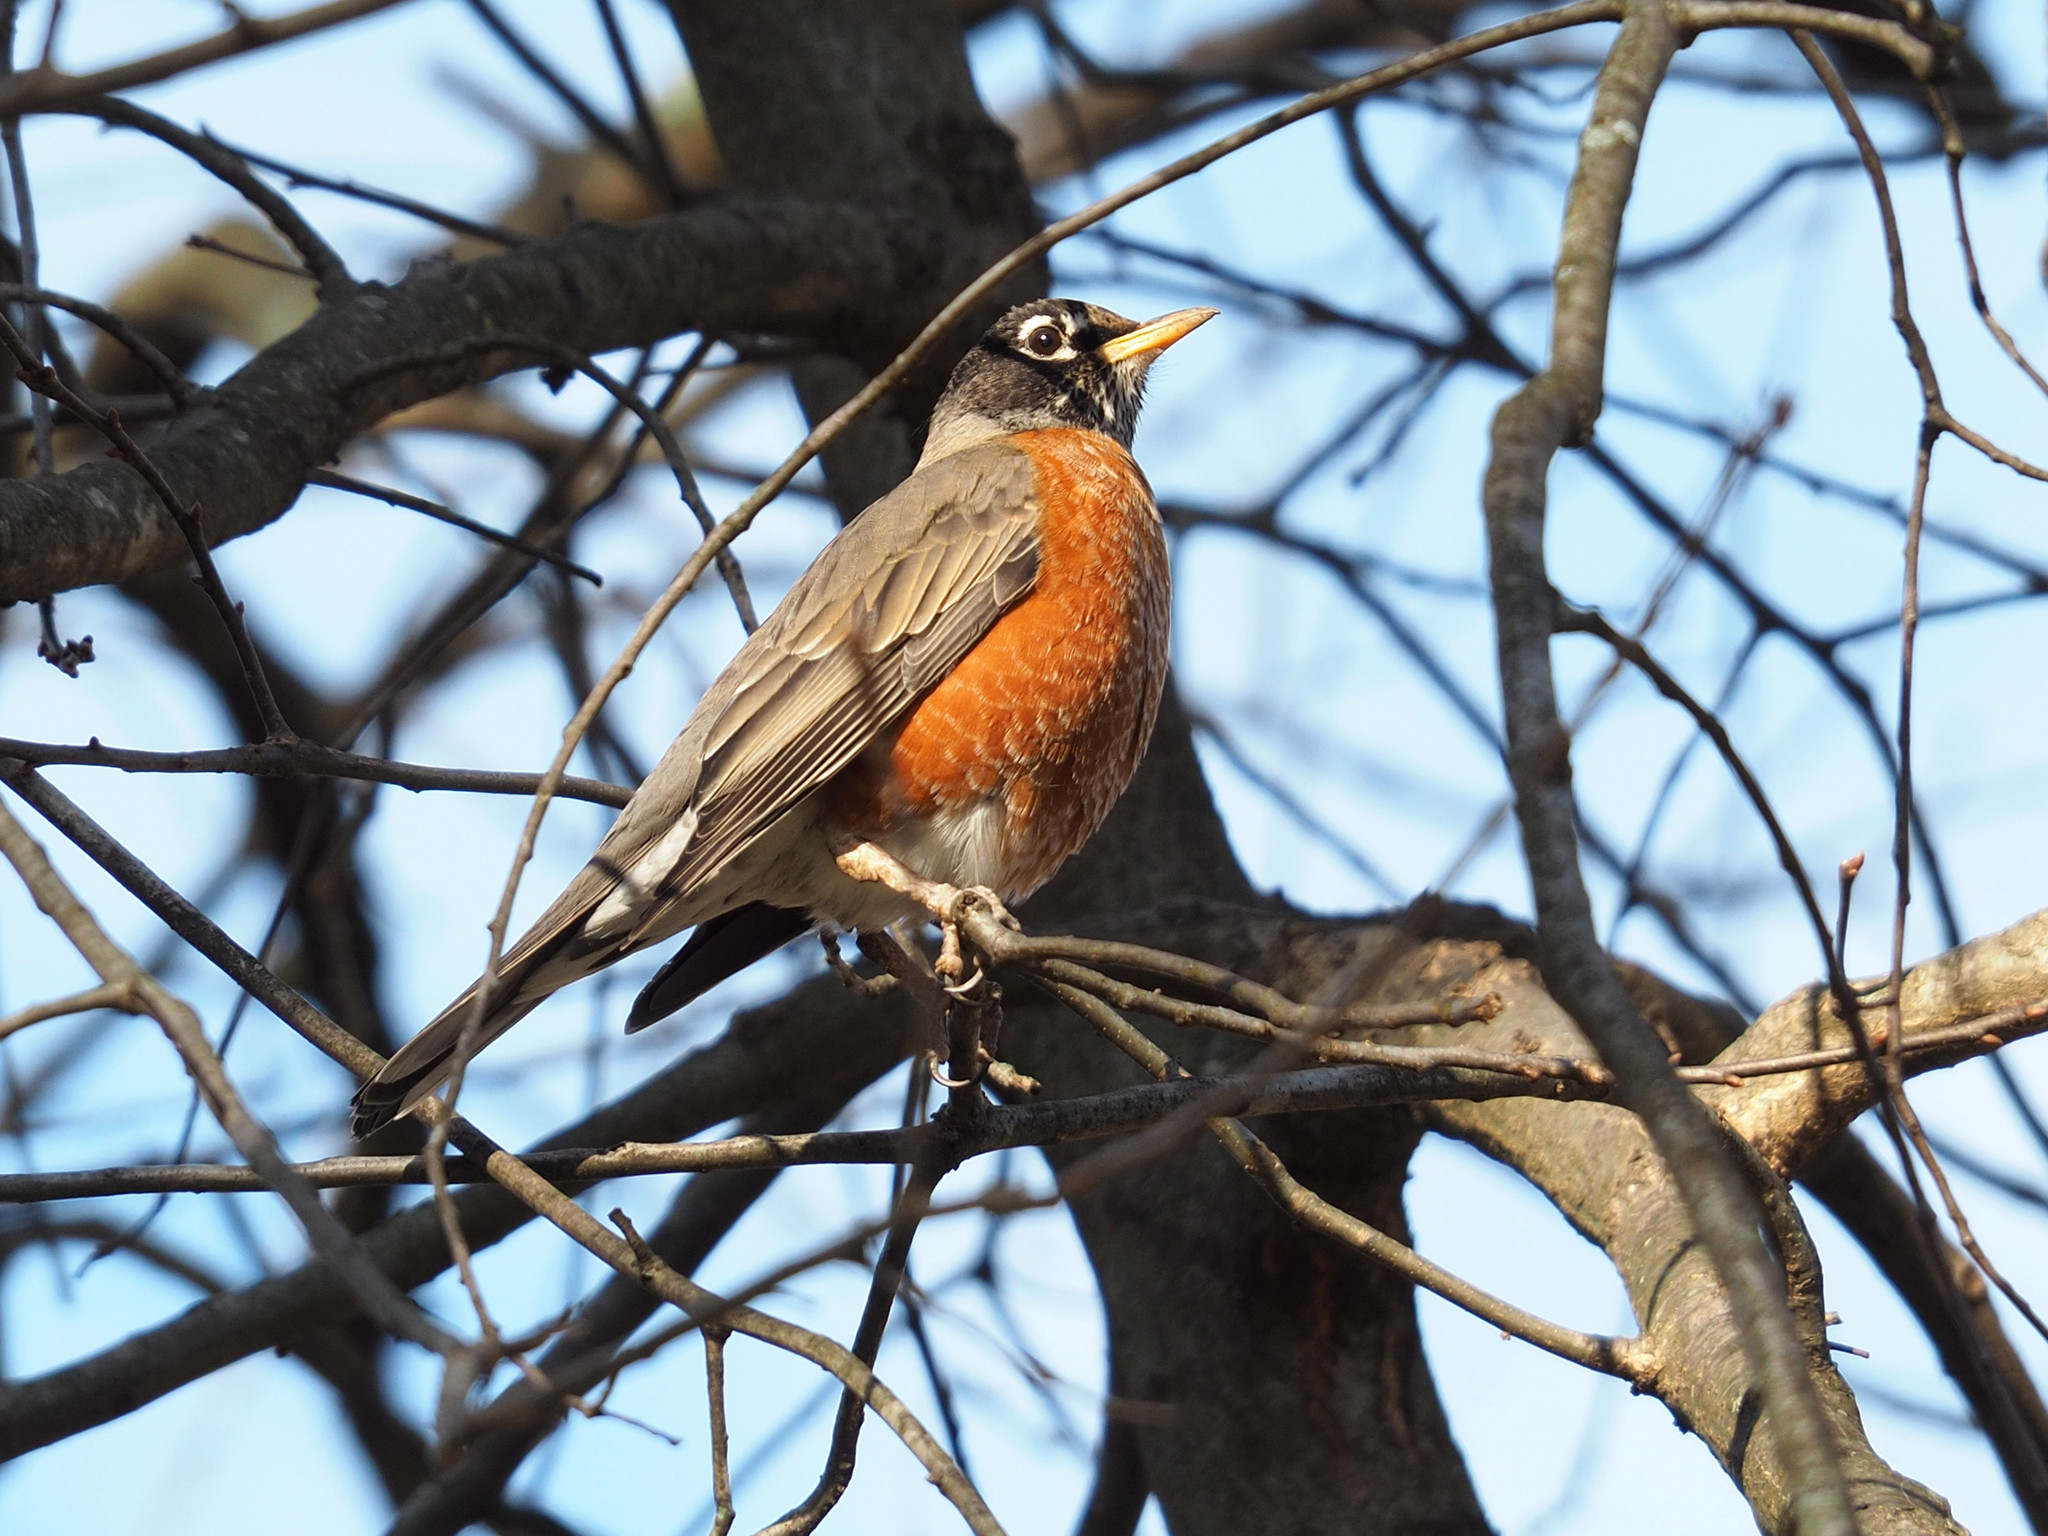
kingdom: Animalia
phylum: Chordata
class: Aves
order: Passeriformes
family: Turdidae
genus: Turdus
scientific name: Turdus migratorius
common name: American robin
